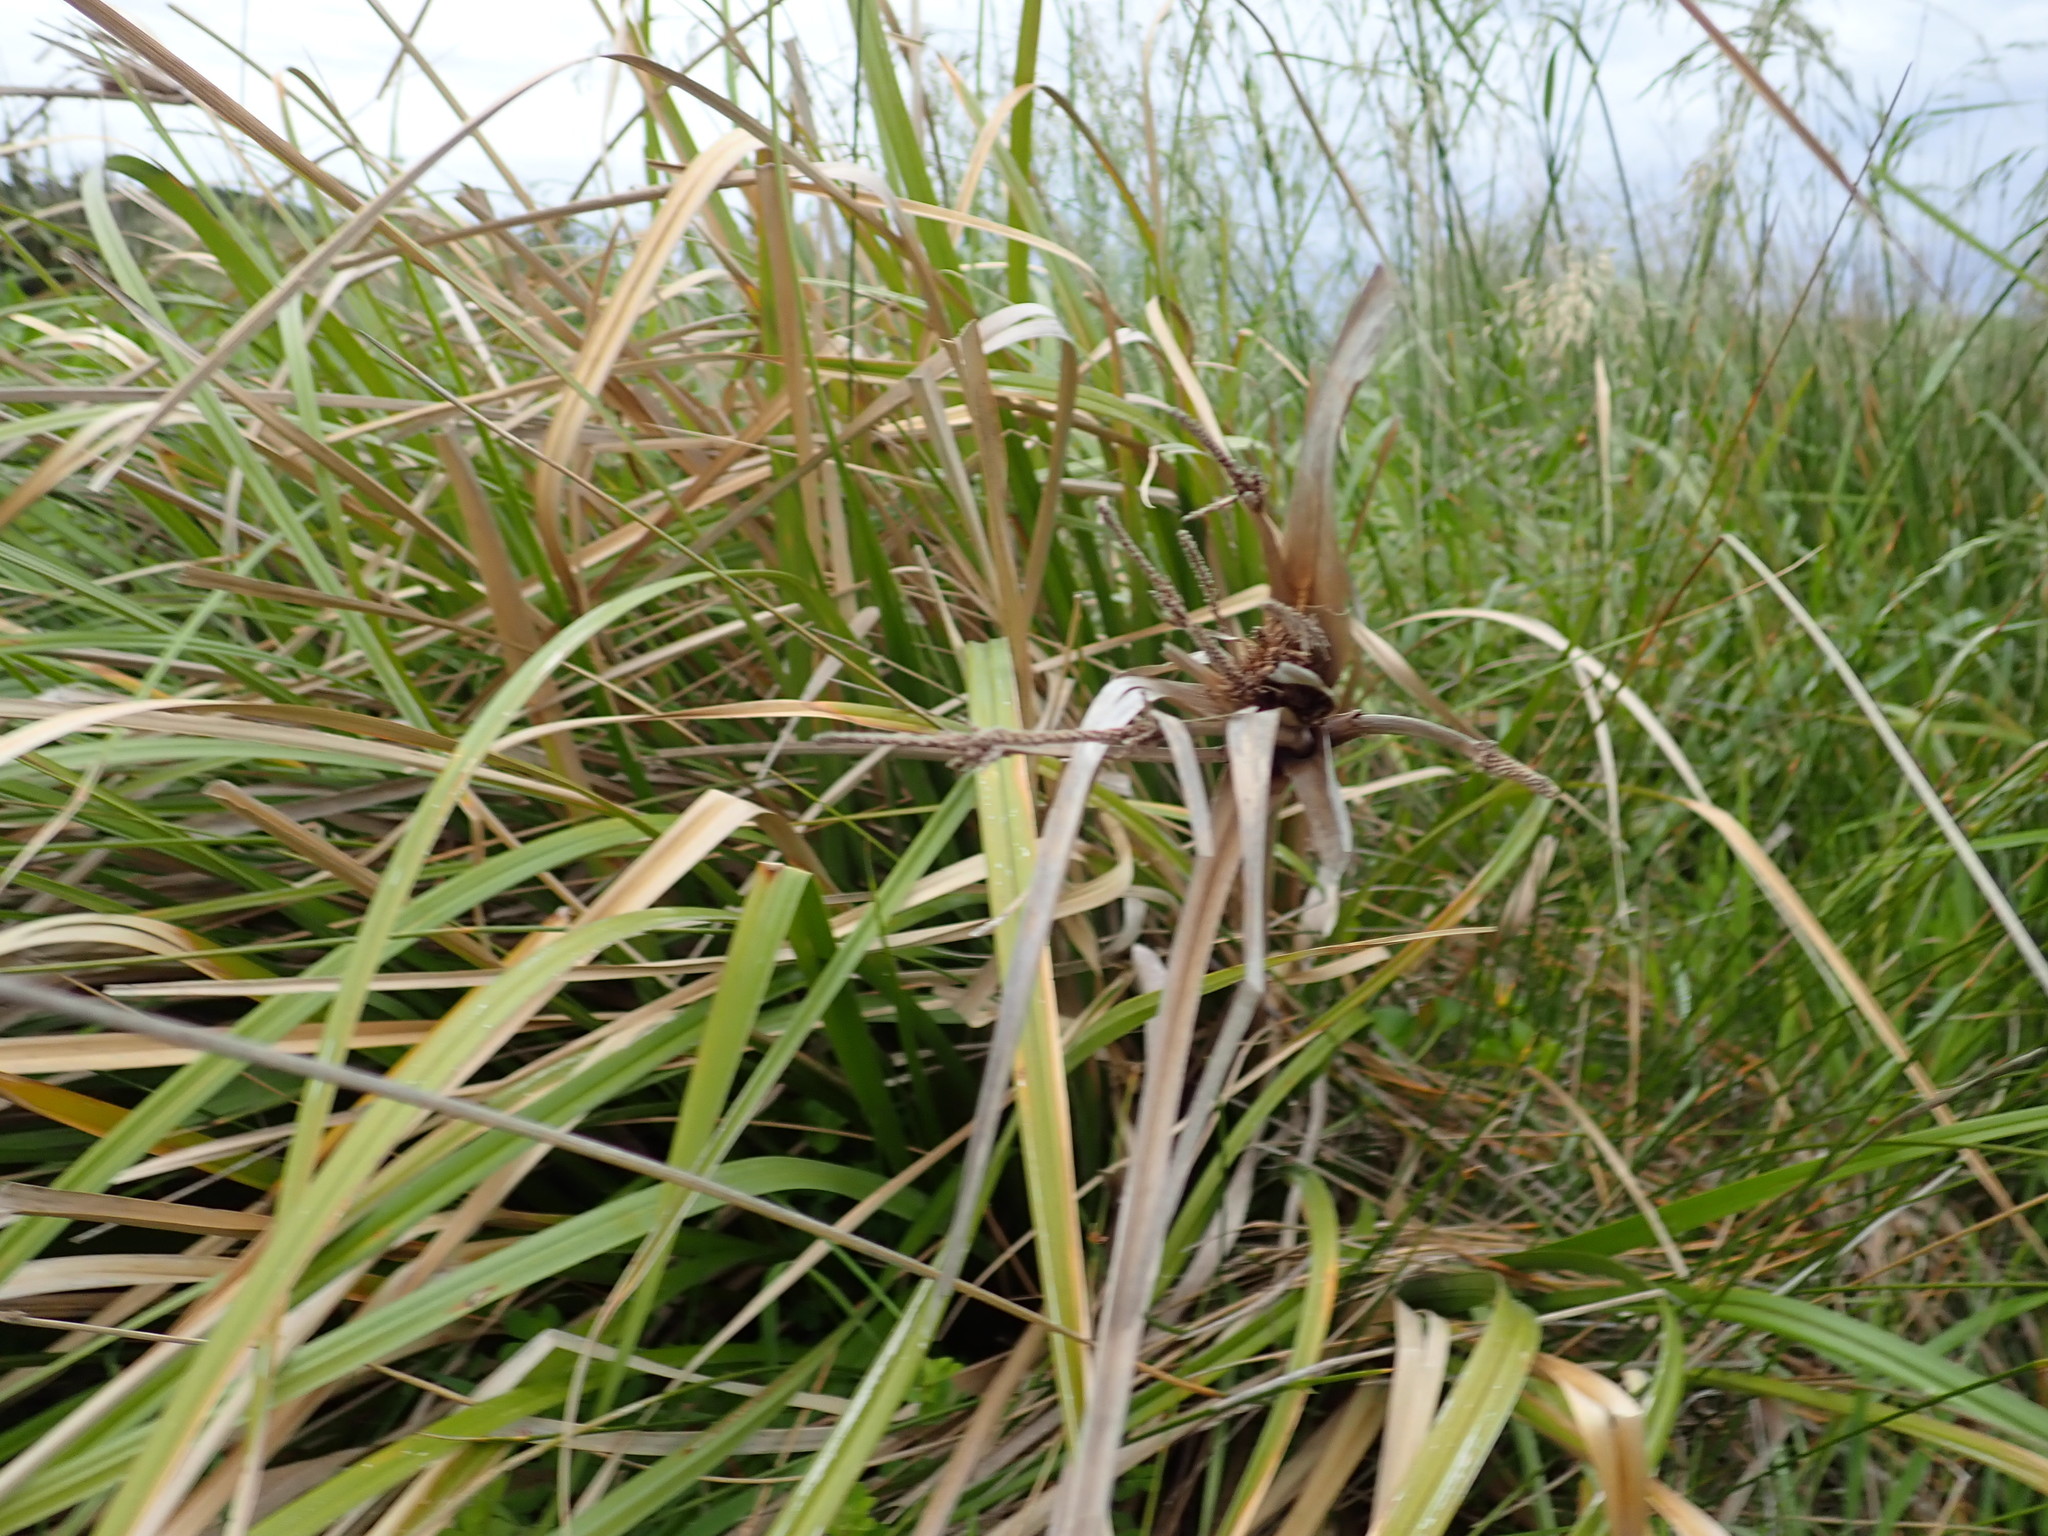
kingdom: Plantae
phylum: Tracheophyta
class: Liliopsida
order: Poales
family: Cyperaceae
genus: Cyperus
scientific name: Cyperus ustulatus
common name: Giant umbrella-sedge
